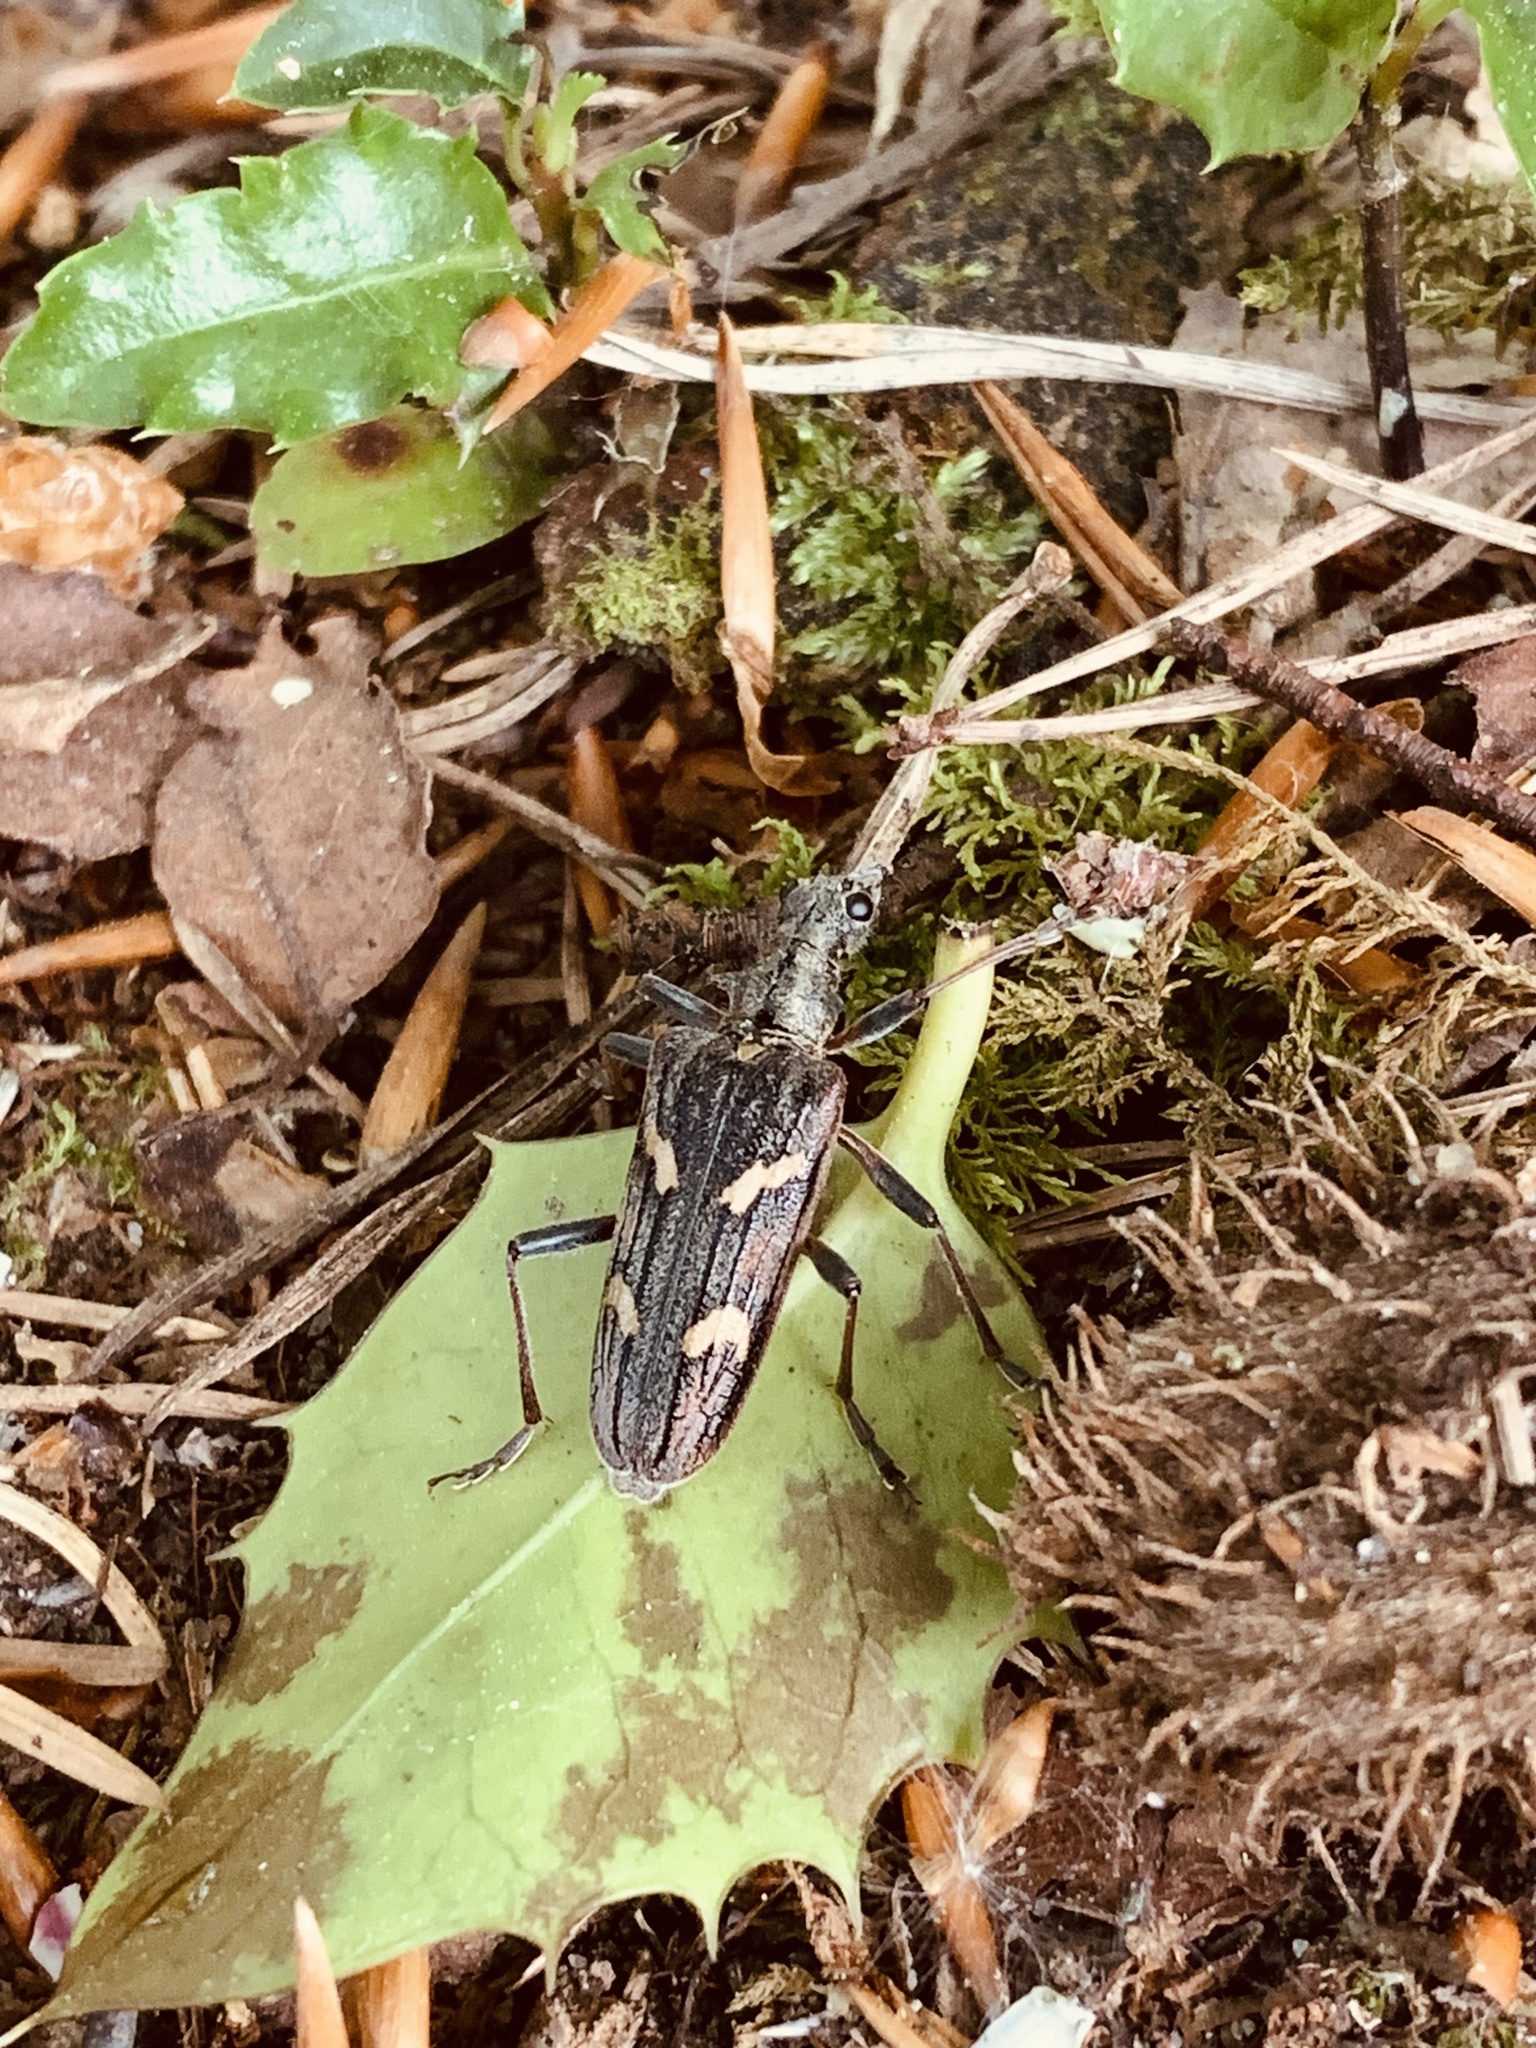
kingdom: Animalia
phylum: Arthropoda
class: Insecta
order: Coleoptera
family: Cerambycidae
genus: Rhagium
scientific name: Rhagium bifasciatum
